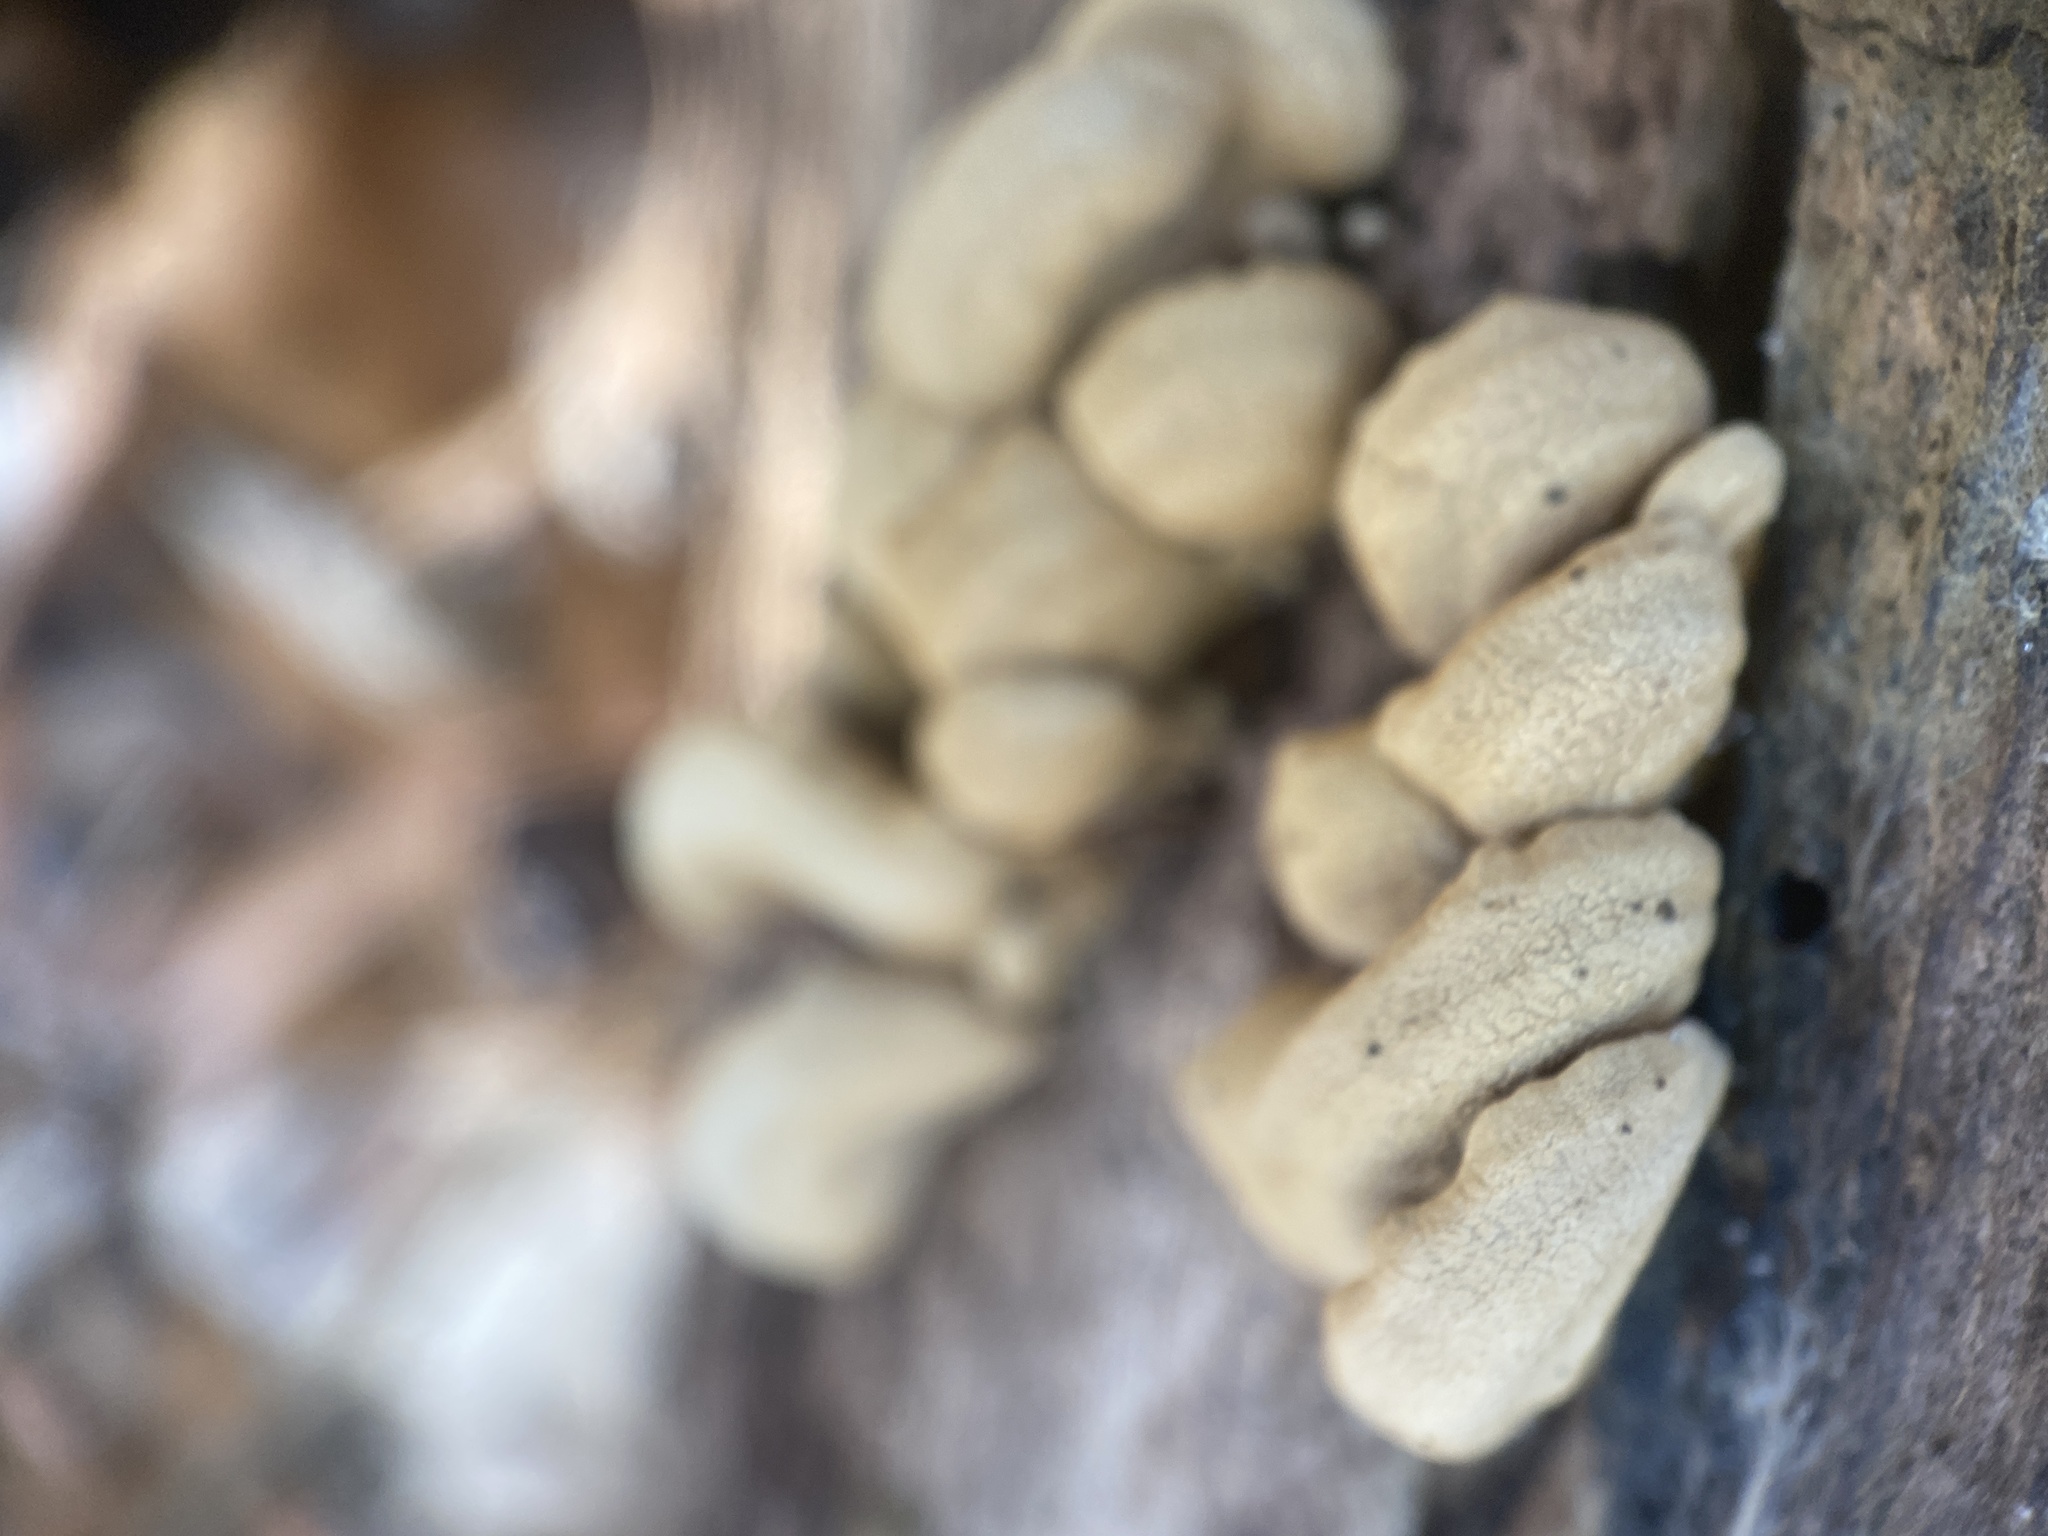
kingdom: Fungi
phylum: Basidiomycota
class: Agaricomycetes
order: Agaricales
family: Mycenaceae
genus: Panellus
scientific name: Panellus stipticus
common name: Bitter oysterling
